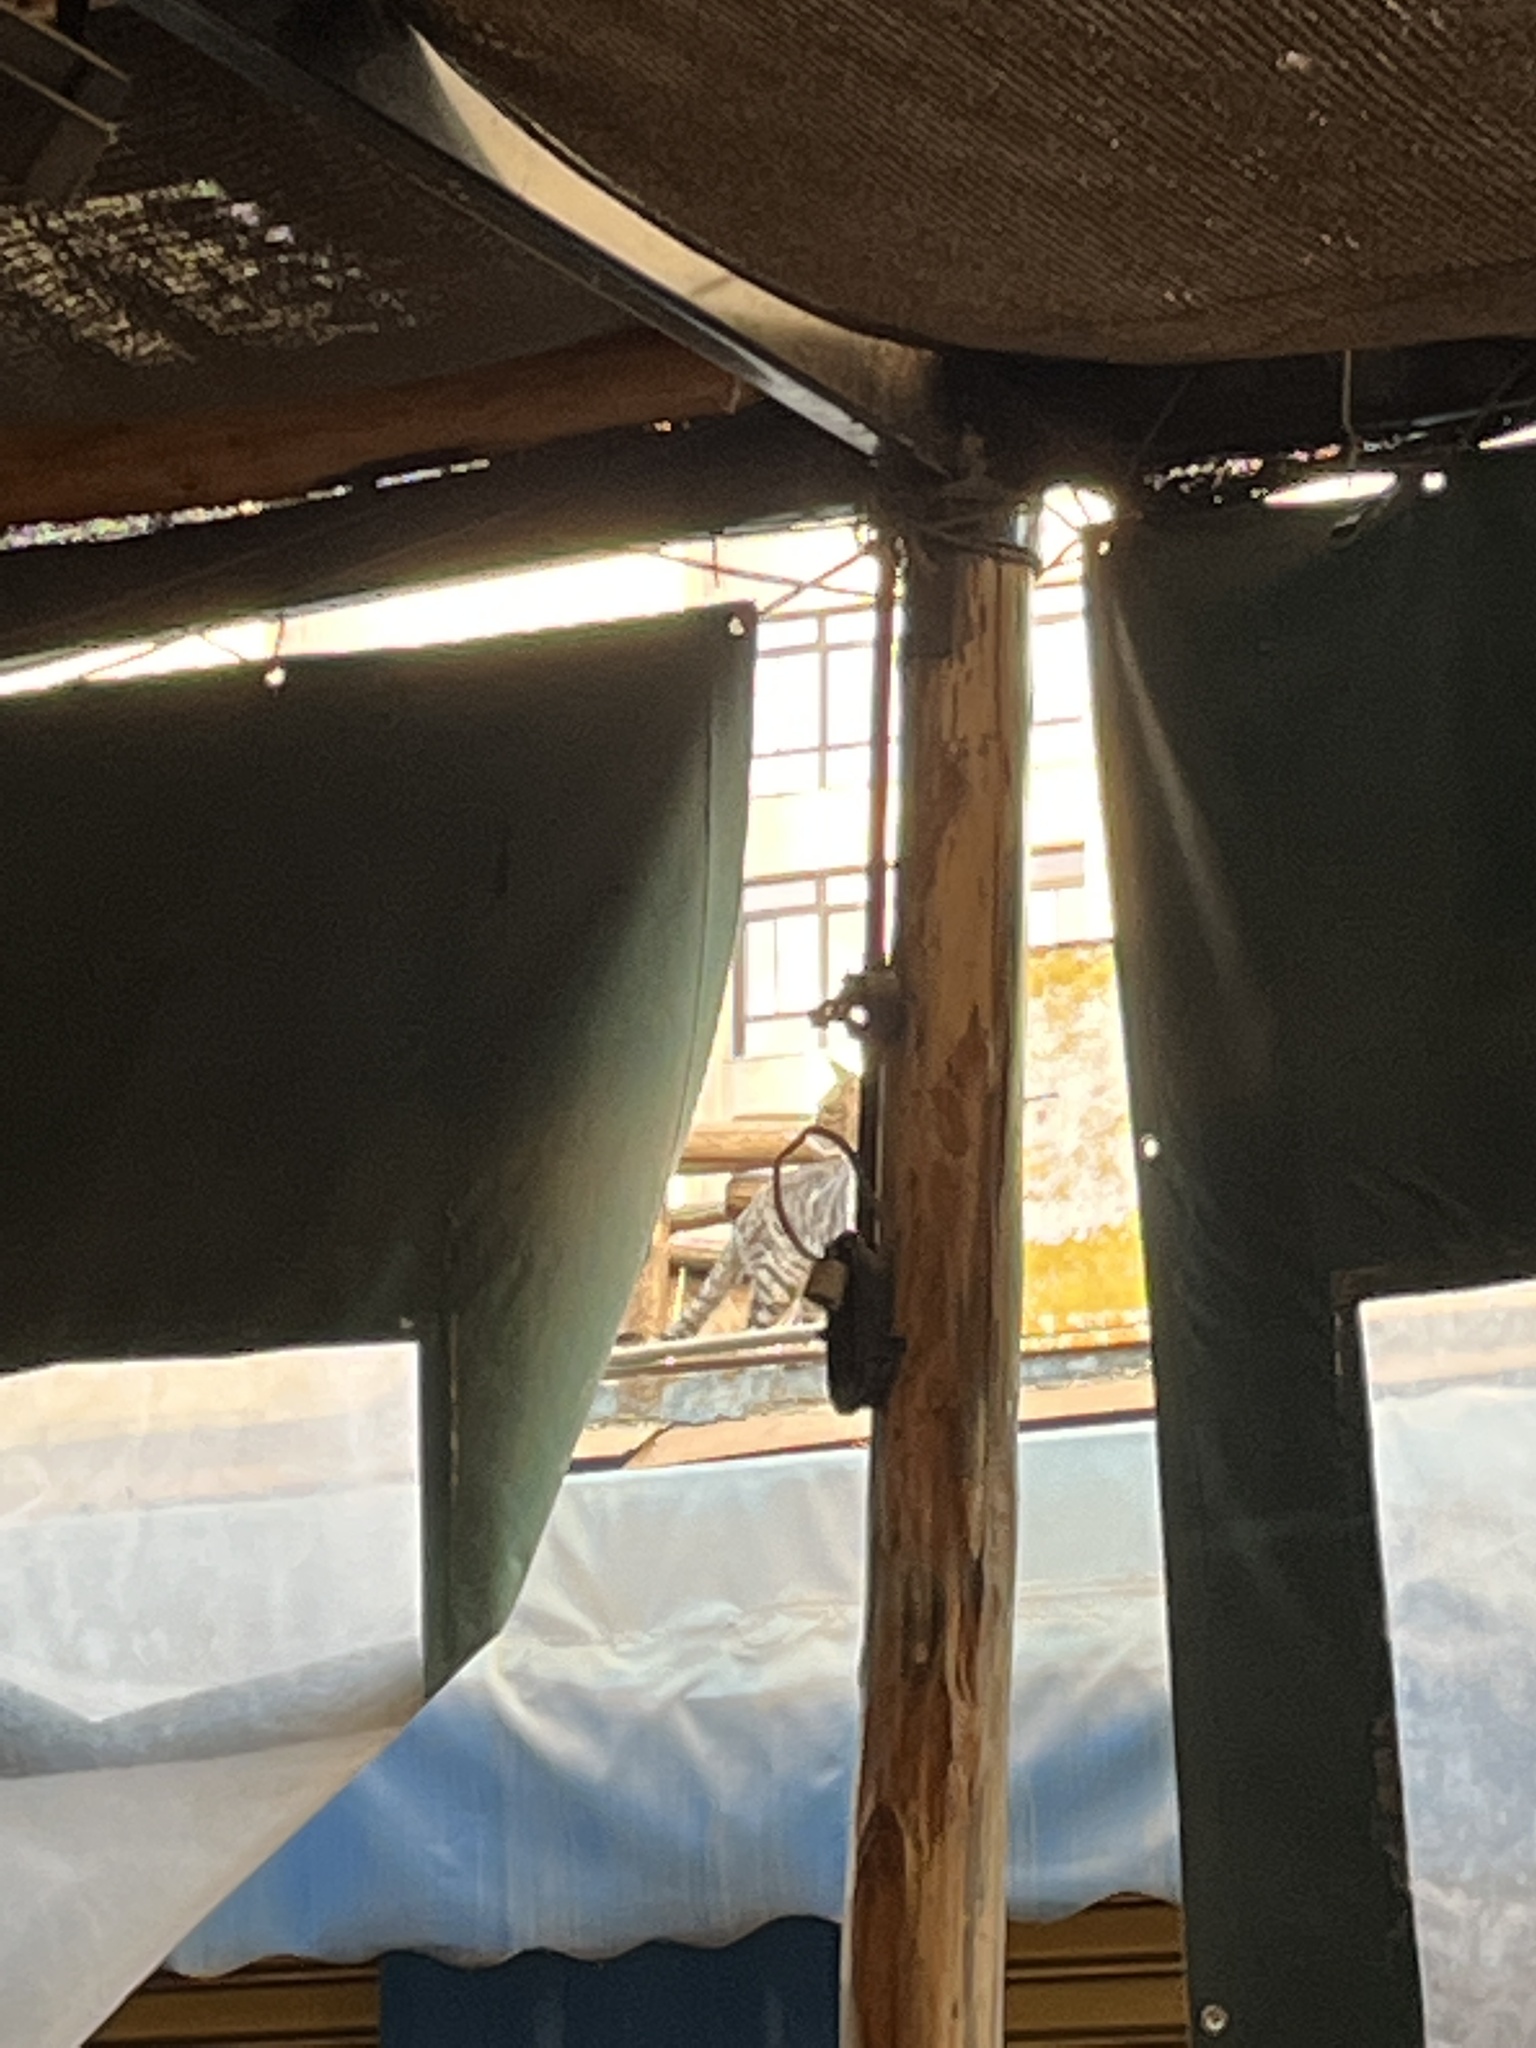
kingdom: Animalia
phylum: Chordata
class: Mammalia
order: Carnivora
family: Felidae
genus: Felis
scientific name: Felis catus
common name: Domestic cat
